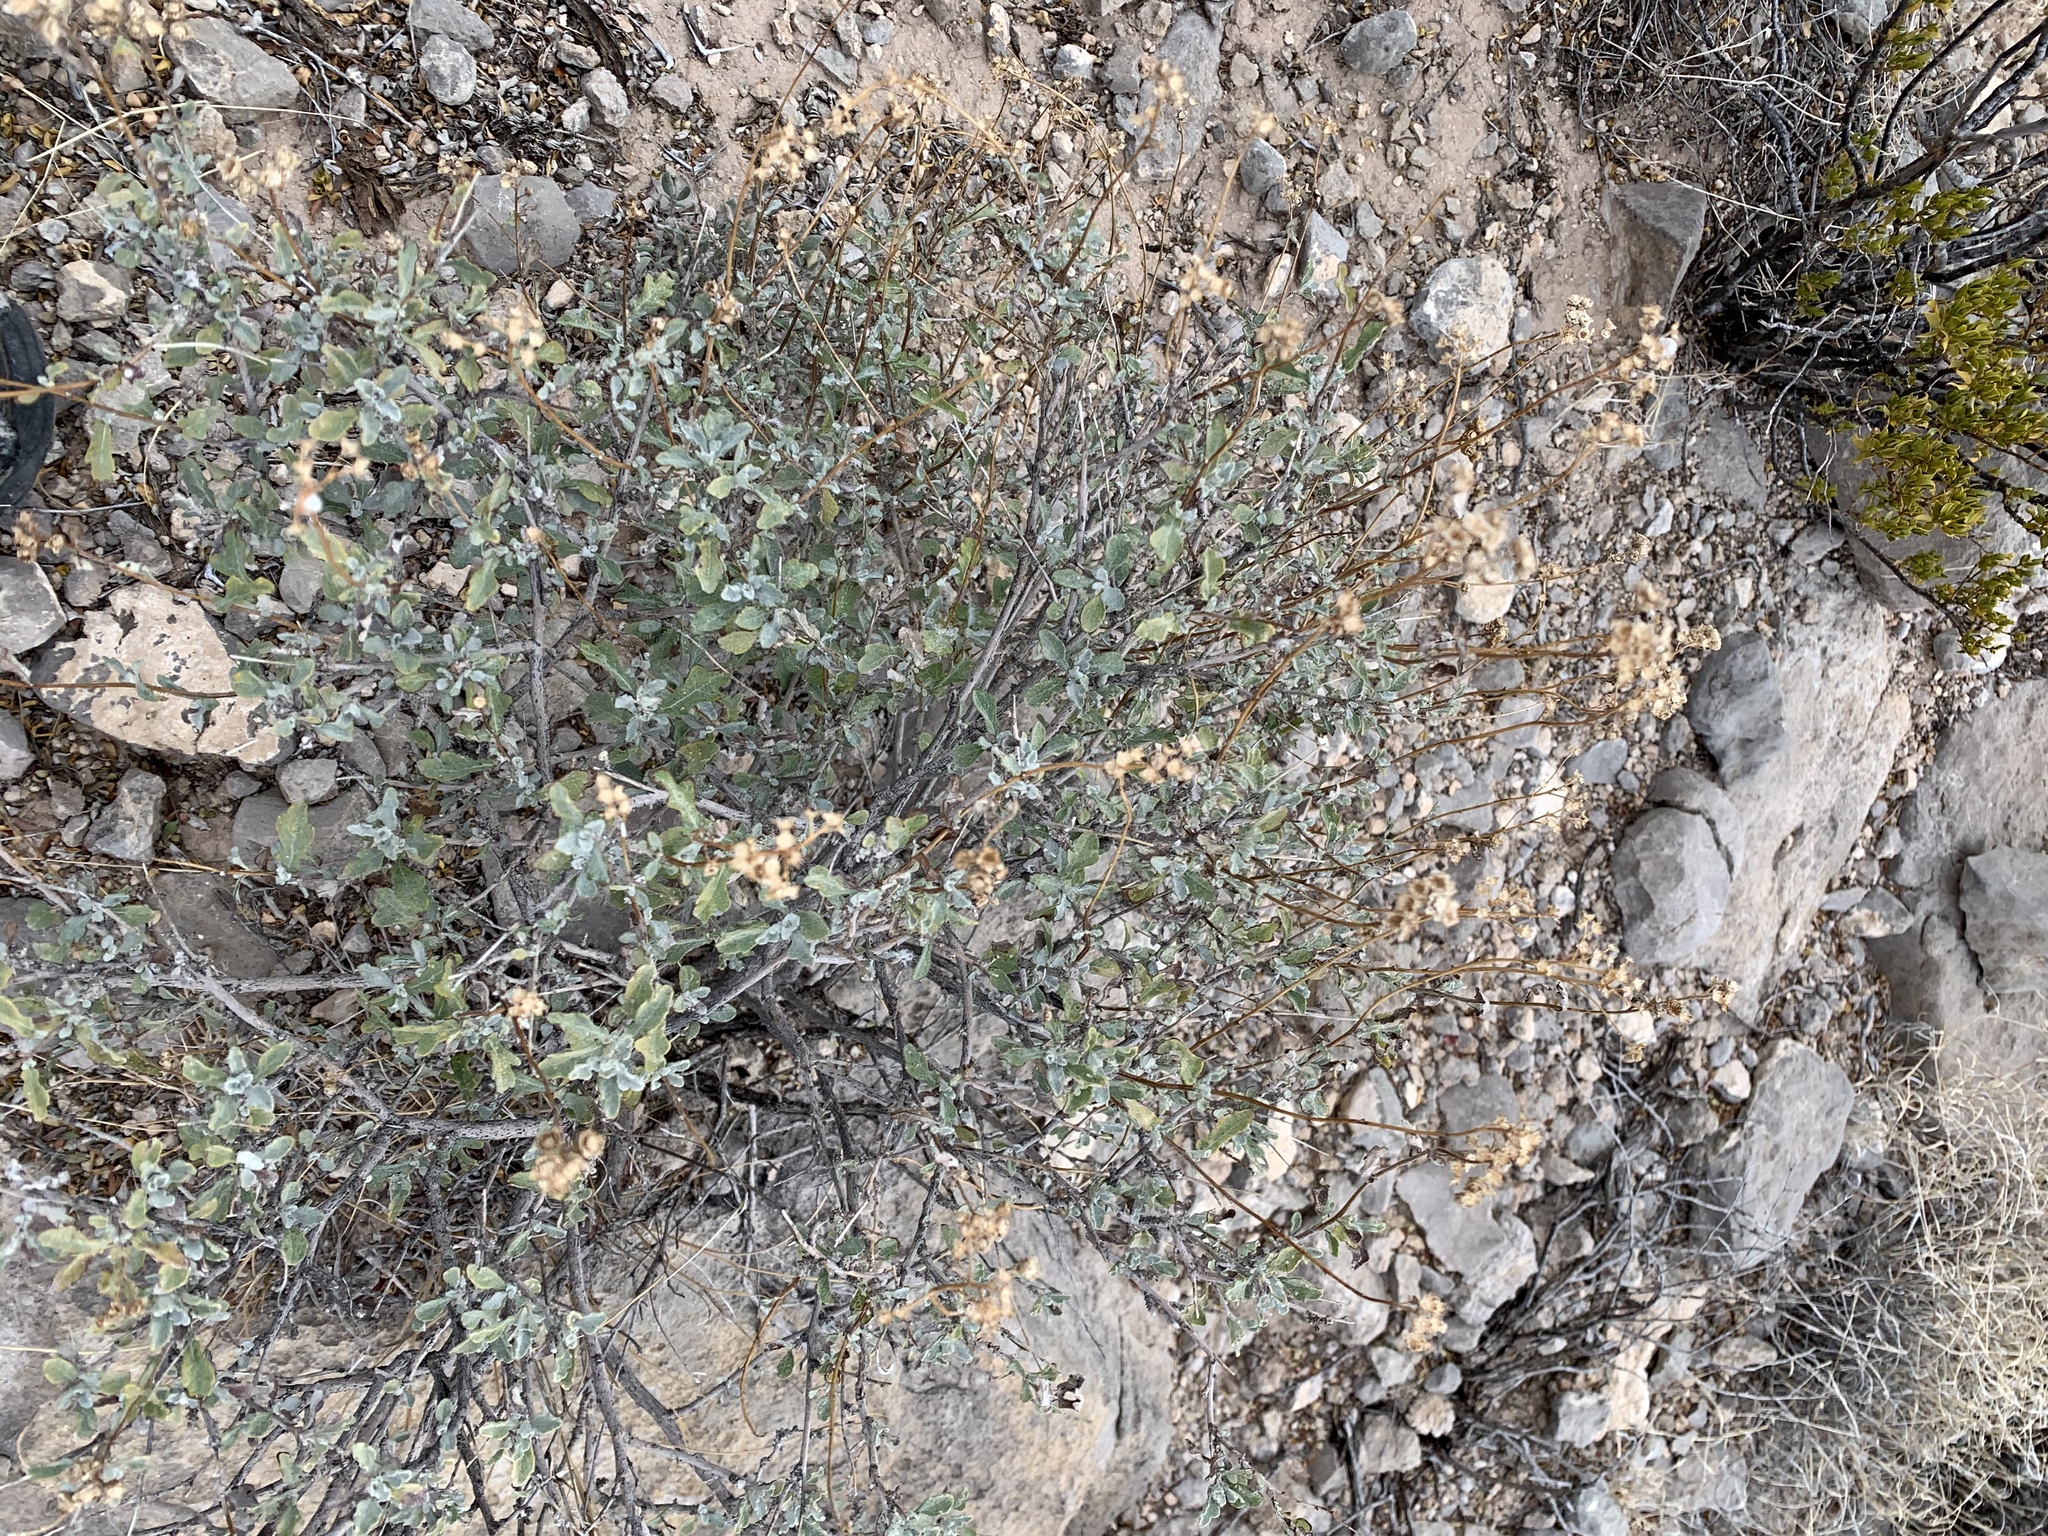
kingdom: Plantae
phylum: Tracheophyta
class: Magnoliopsida
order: Asterales
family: Asteraceae
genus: Parthenium
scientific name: Parthenium incanum
